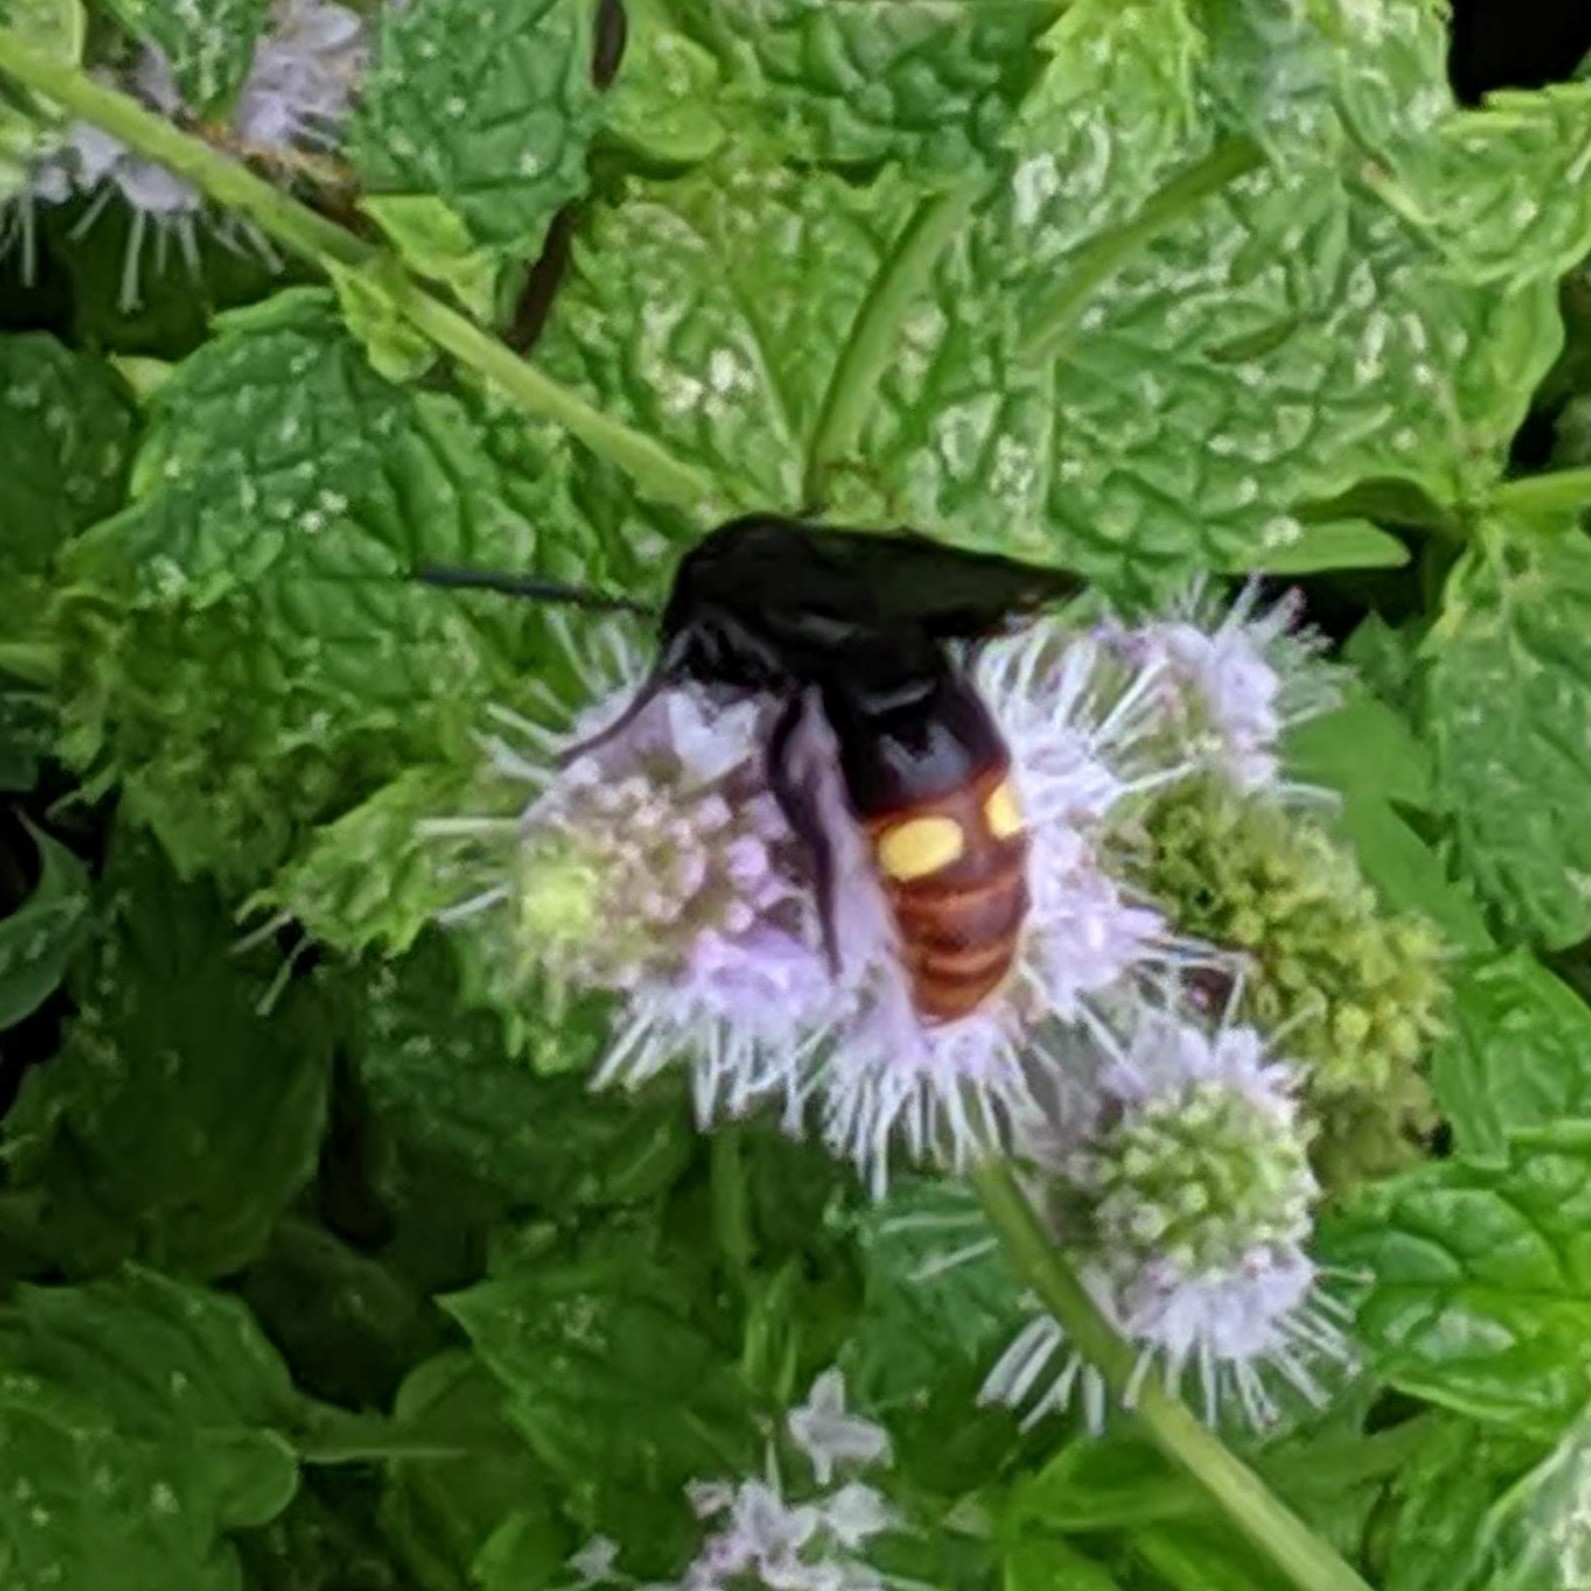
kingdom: Animalia
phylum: Arthropoda
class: Insecta
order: Hymenoptera
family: Scoliidae
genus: Scolia
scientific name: Scolia dubia
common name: Blue-winged scoliid wasp
